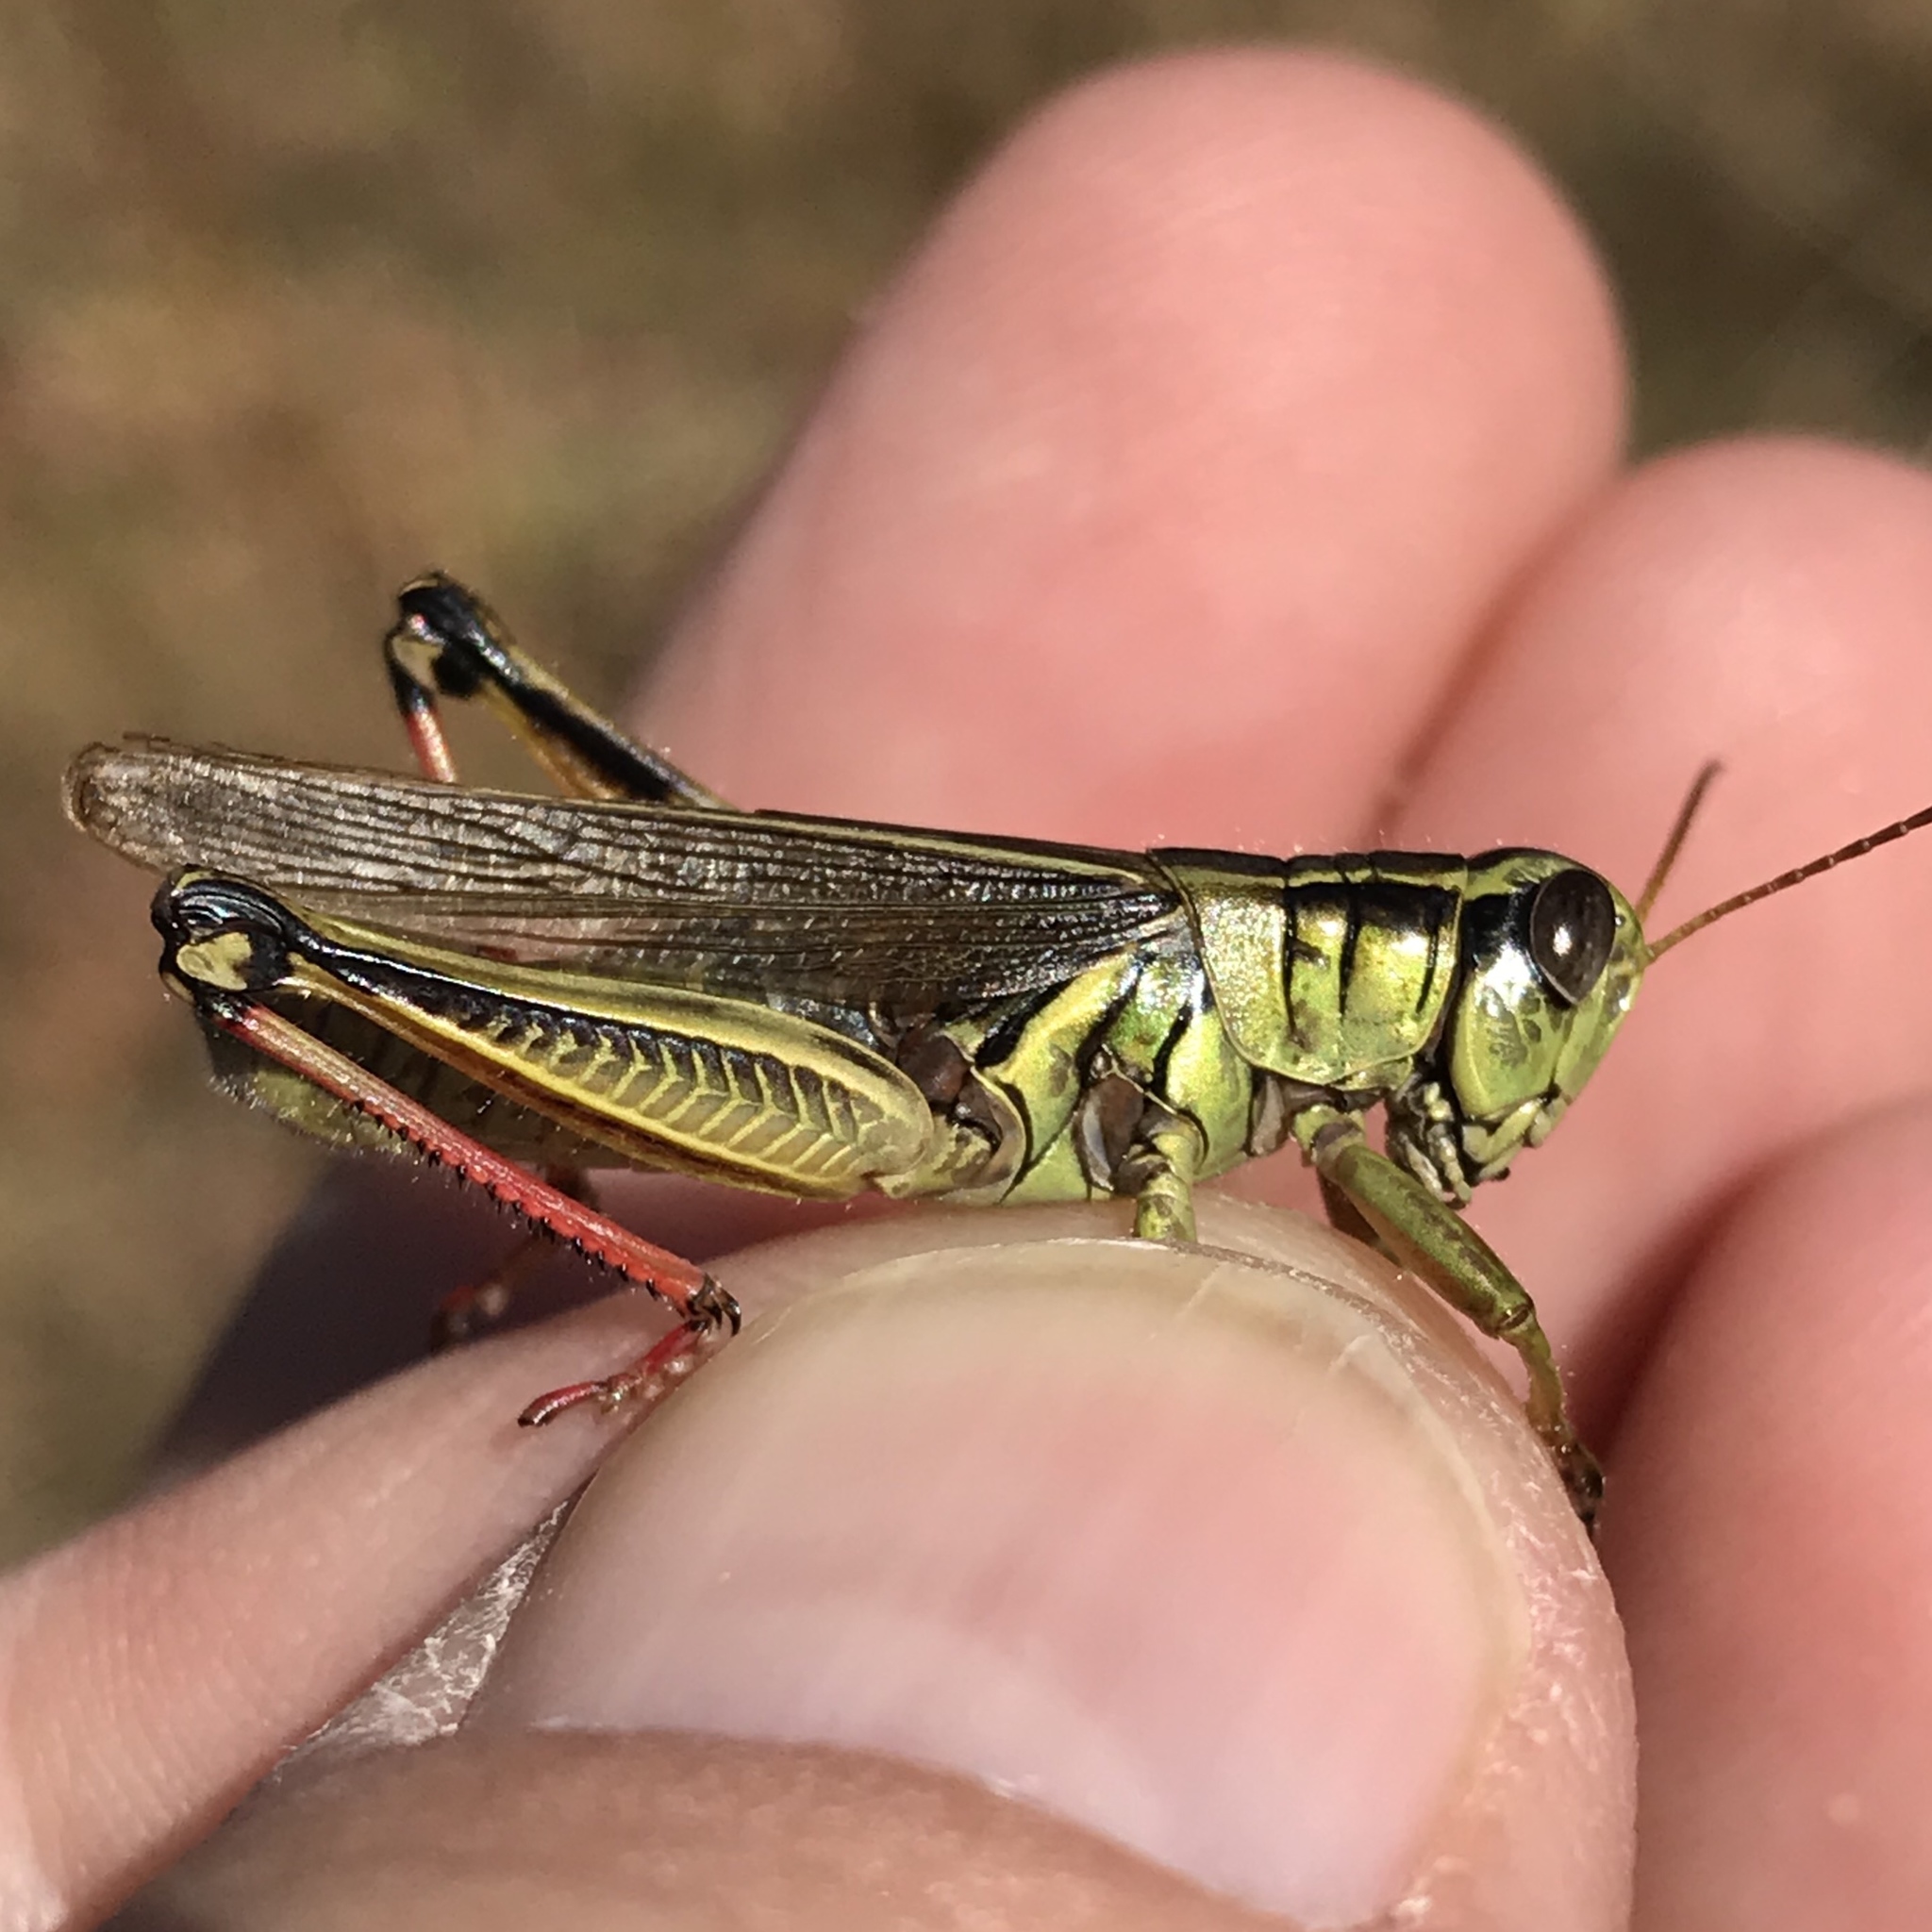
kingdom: Animalia
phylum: Arthropoda
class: Insecta
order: Orthoptera
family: Acrididae
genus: Melanoplus
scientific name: Melanoplus bivittatus
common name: Two-striped grasshopper
